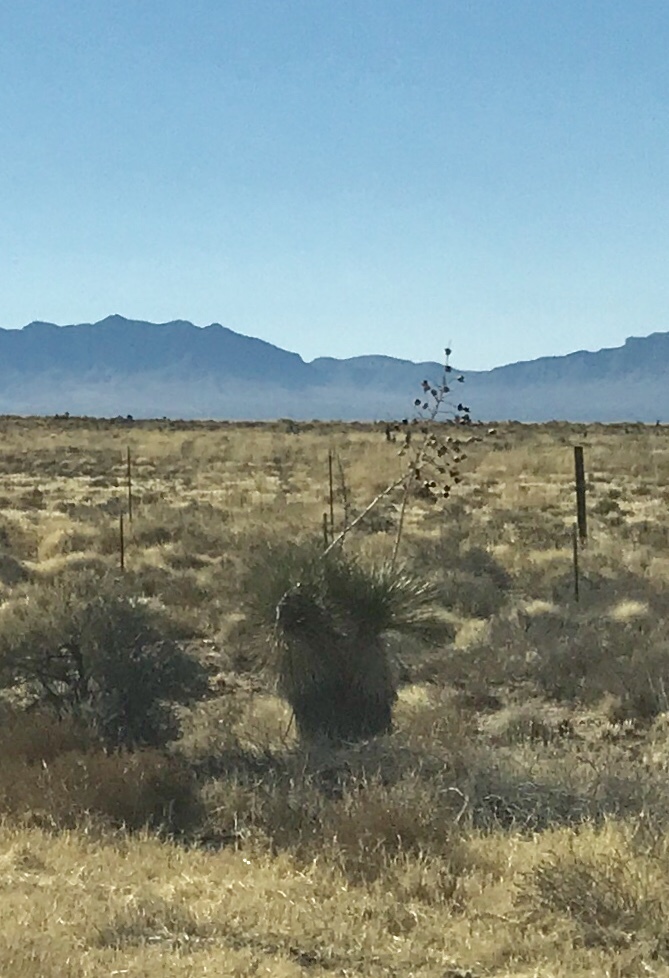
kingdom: Plantae
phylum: Tracheophyta
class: Liliopsida
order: Asparagales
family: Asparagaceae
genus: Yucca
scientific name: Yucca elata
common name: Palmella
